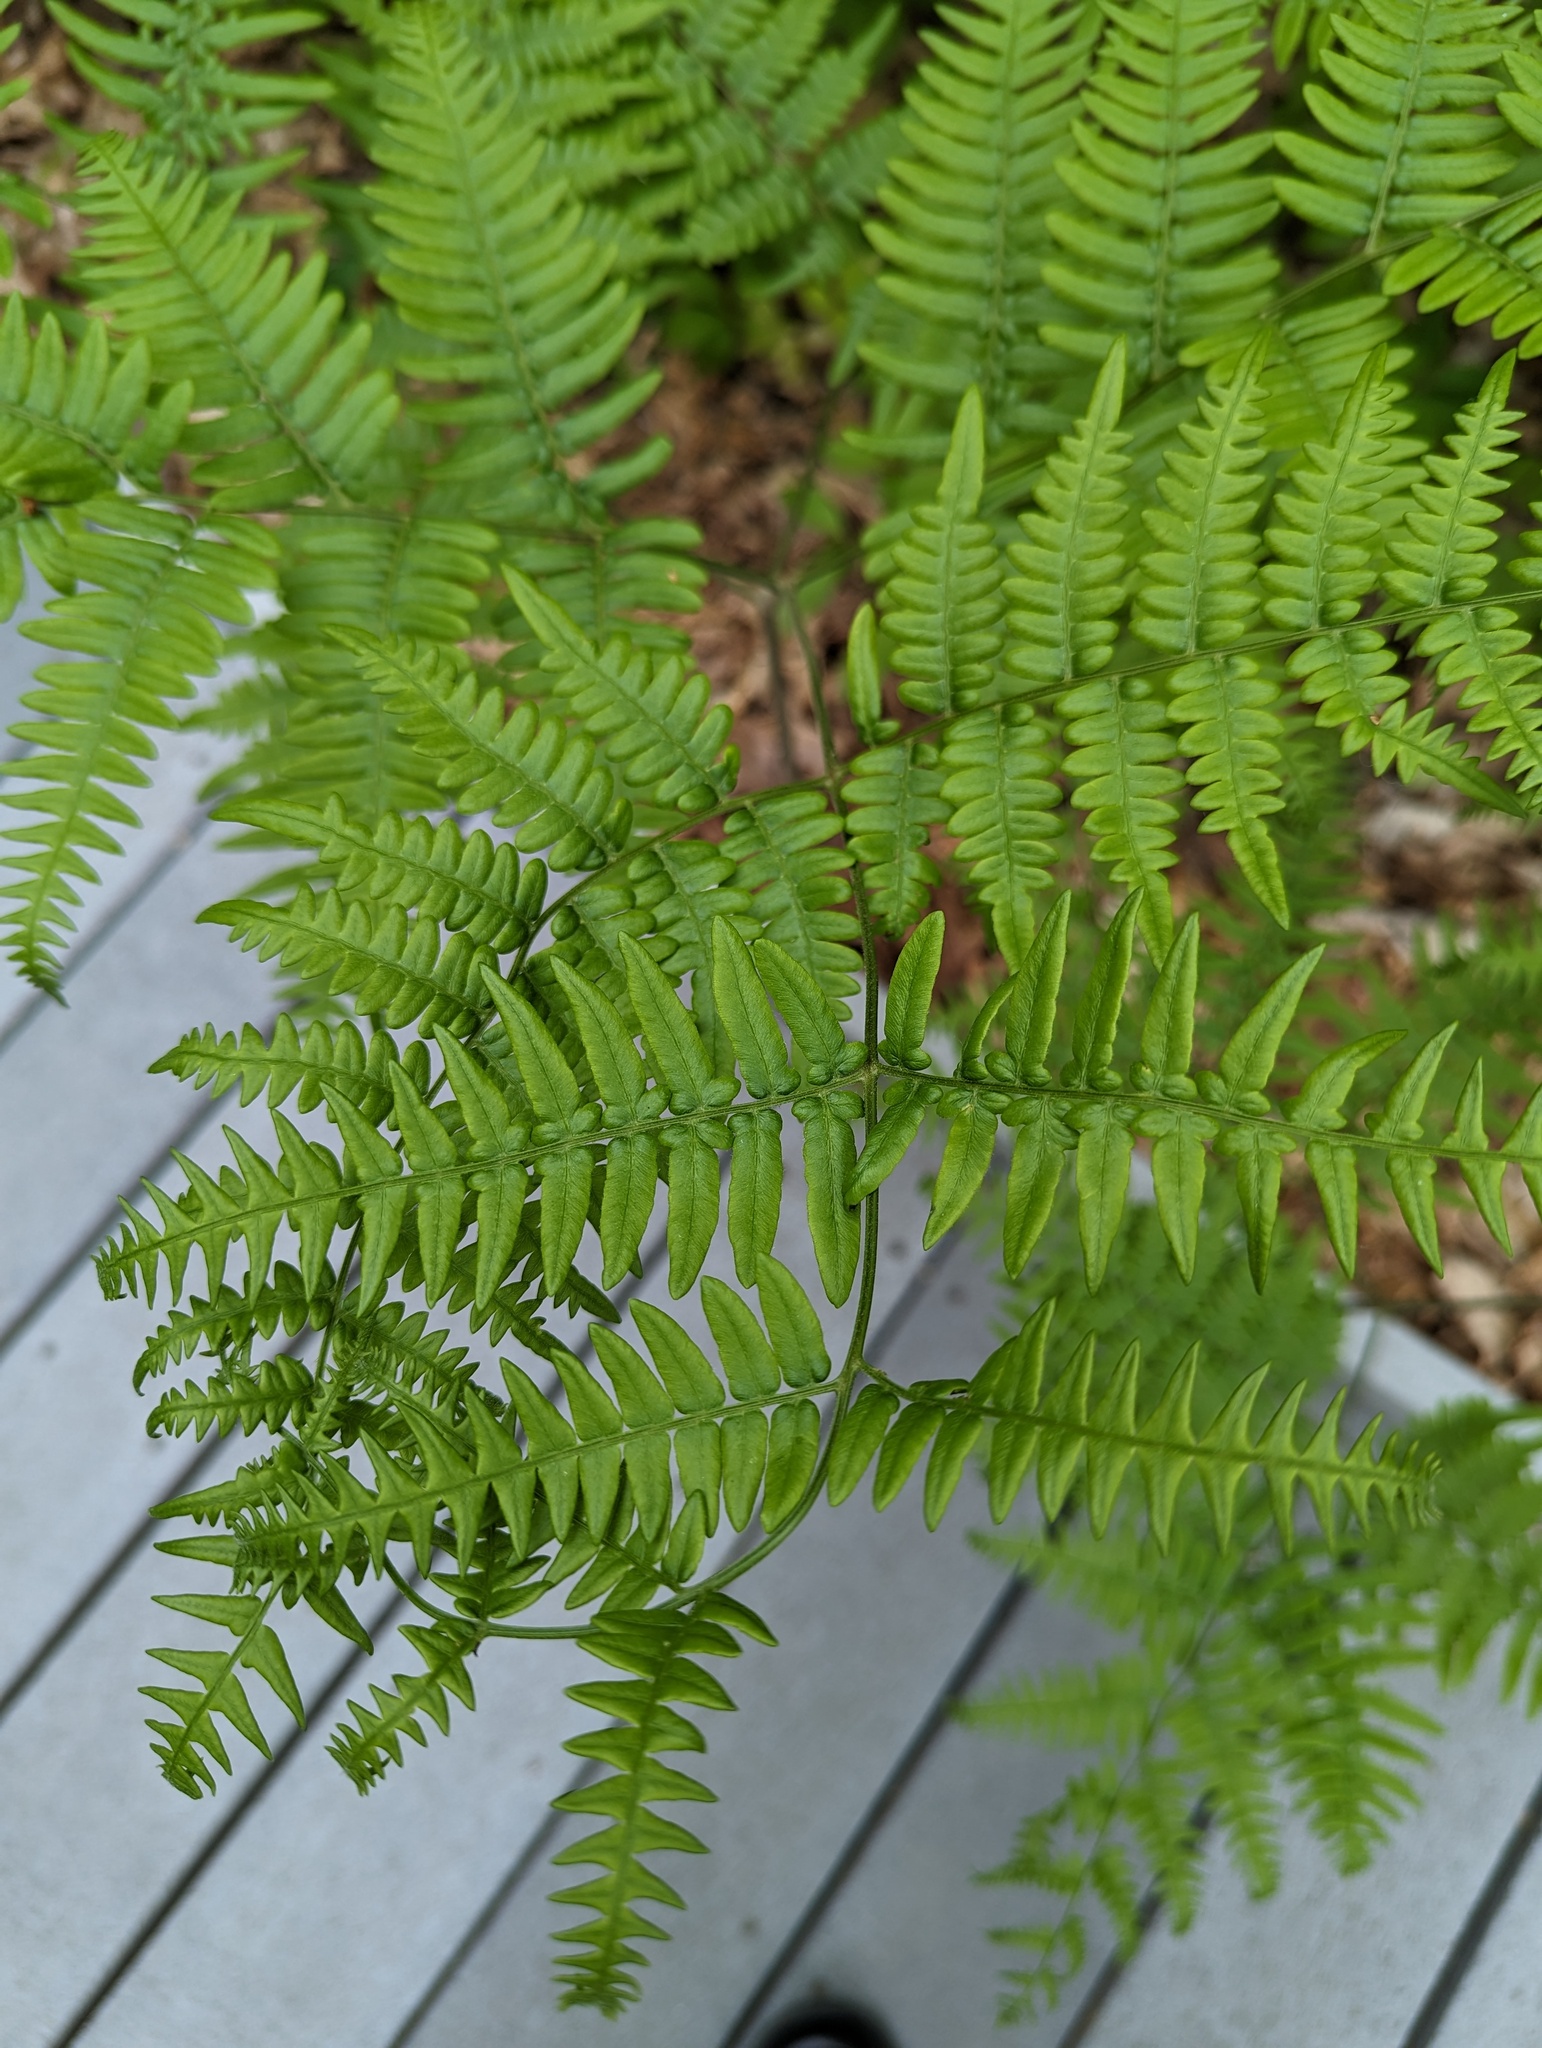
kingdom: Plantae
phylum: Tracheophyta
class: Polypodiopsida
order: Polypodiales
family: Dennstaedtiaceae
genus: Pteridium
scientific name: Pteridium aquilinum
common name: Bracken
